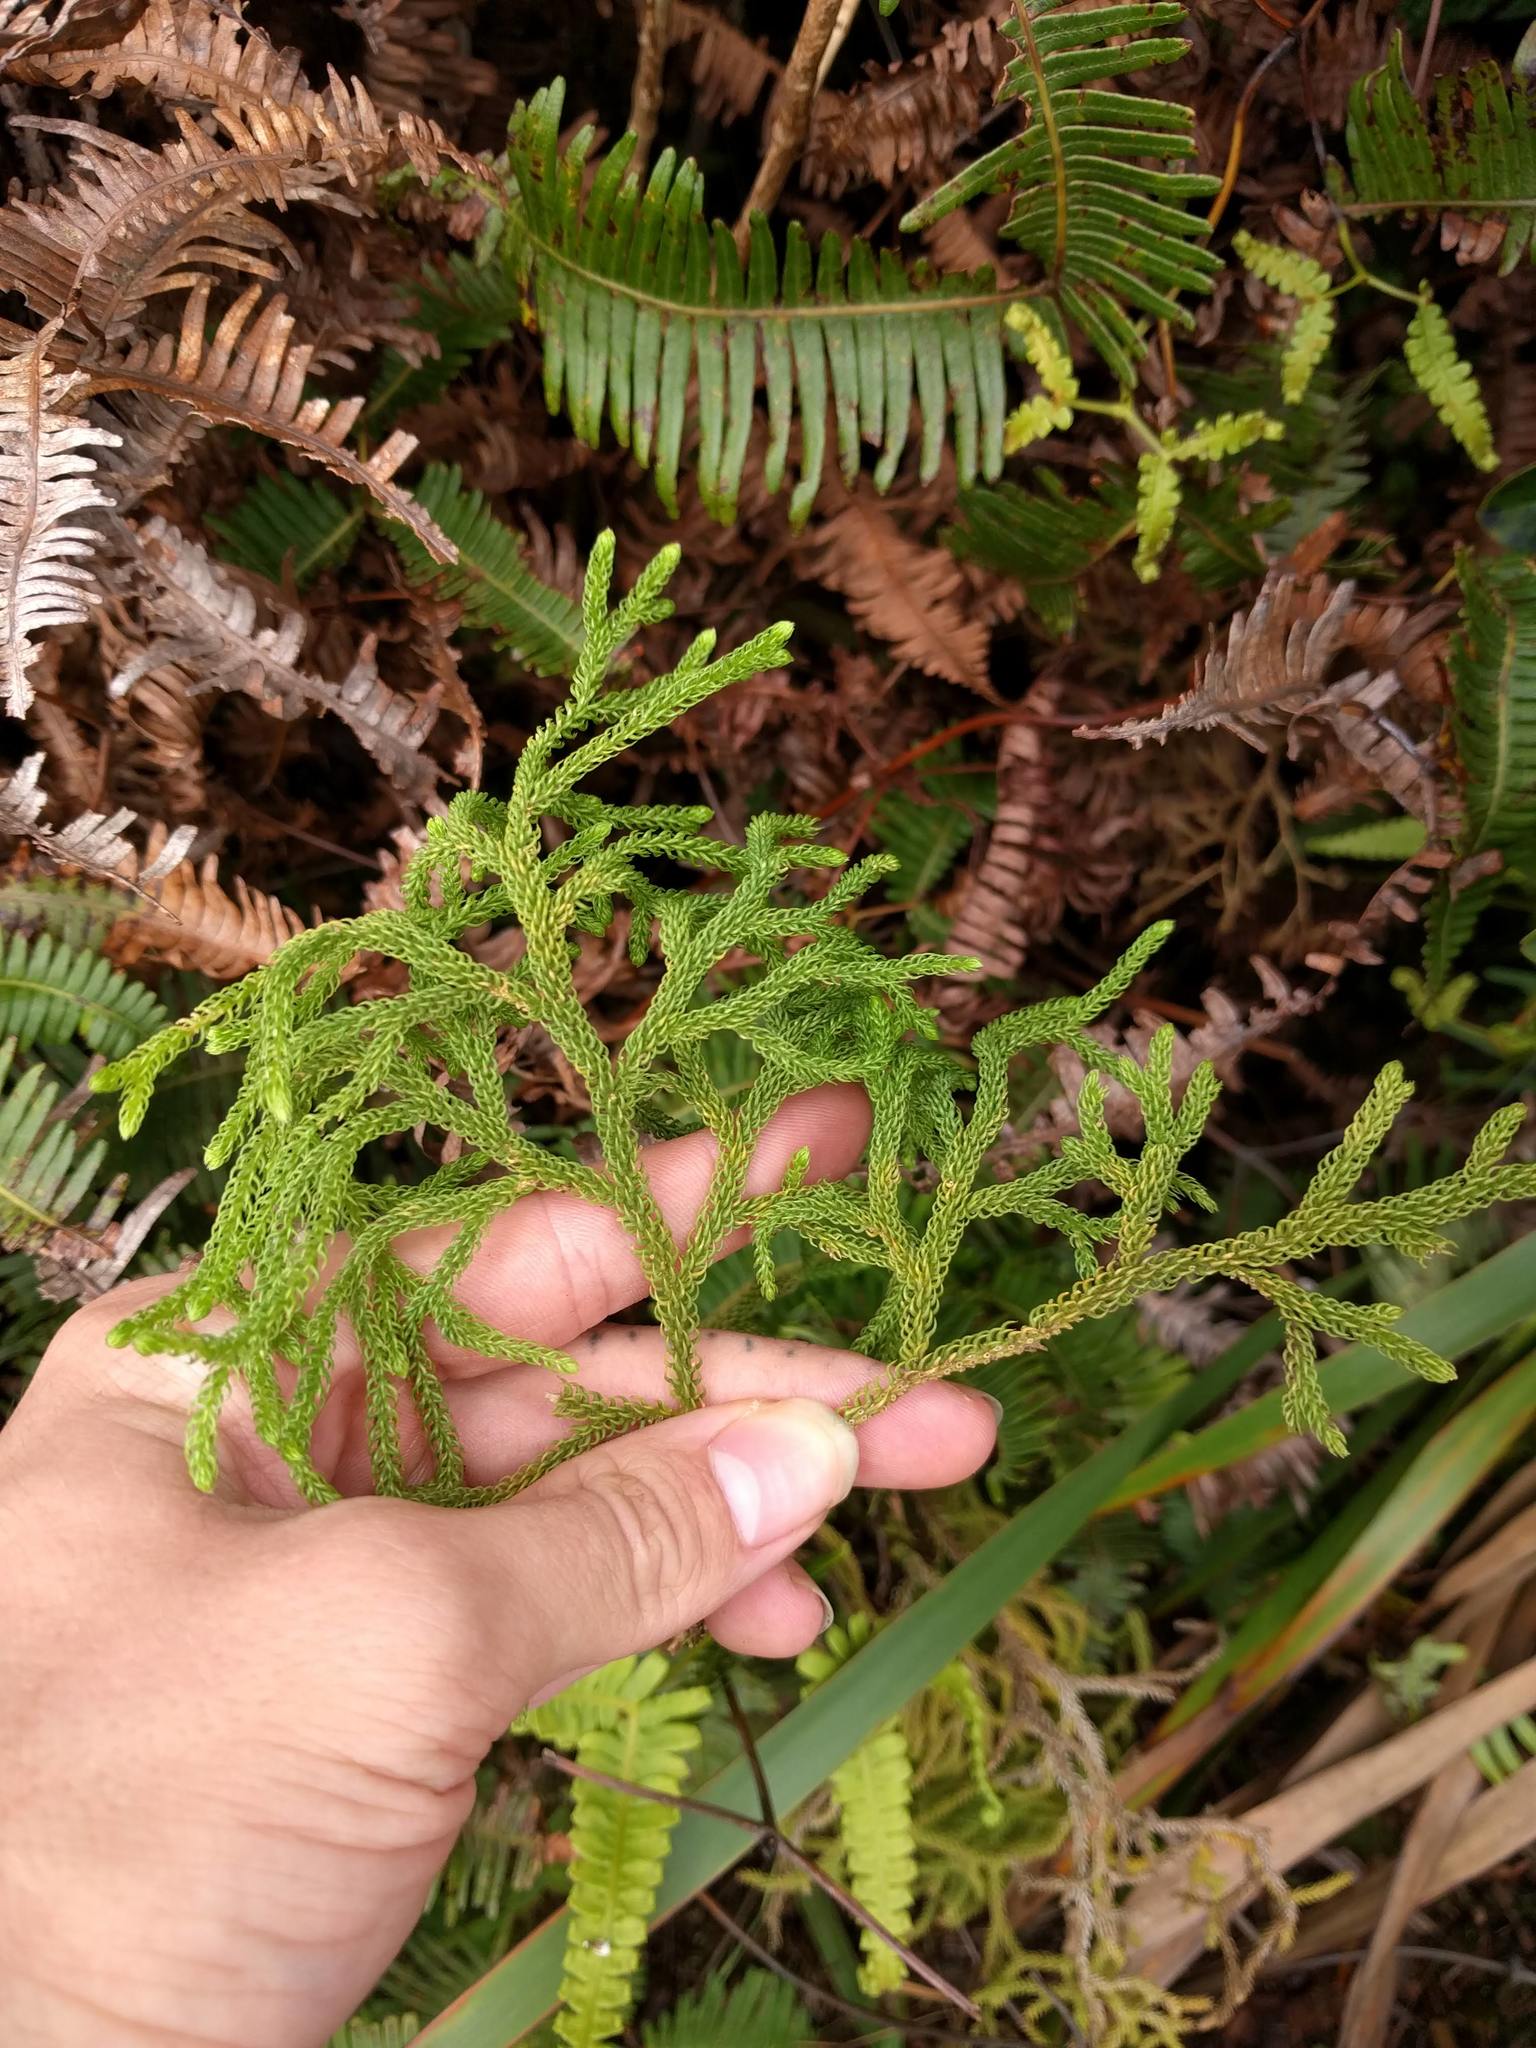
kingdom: Plantae
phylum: Tracheophyta
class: Lycopodiopsida
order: Lycopodiales
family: Lycopodiaceae
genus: Palhinhaea
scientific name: Palhinhaea cernua
